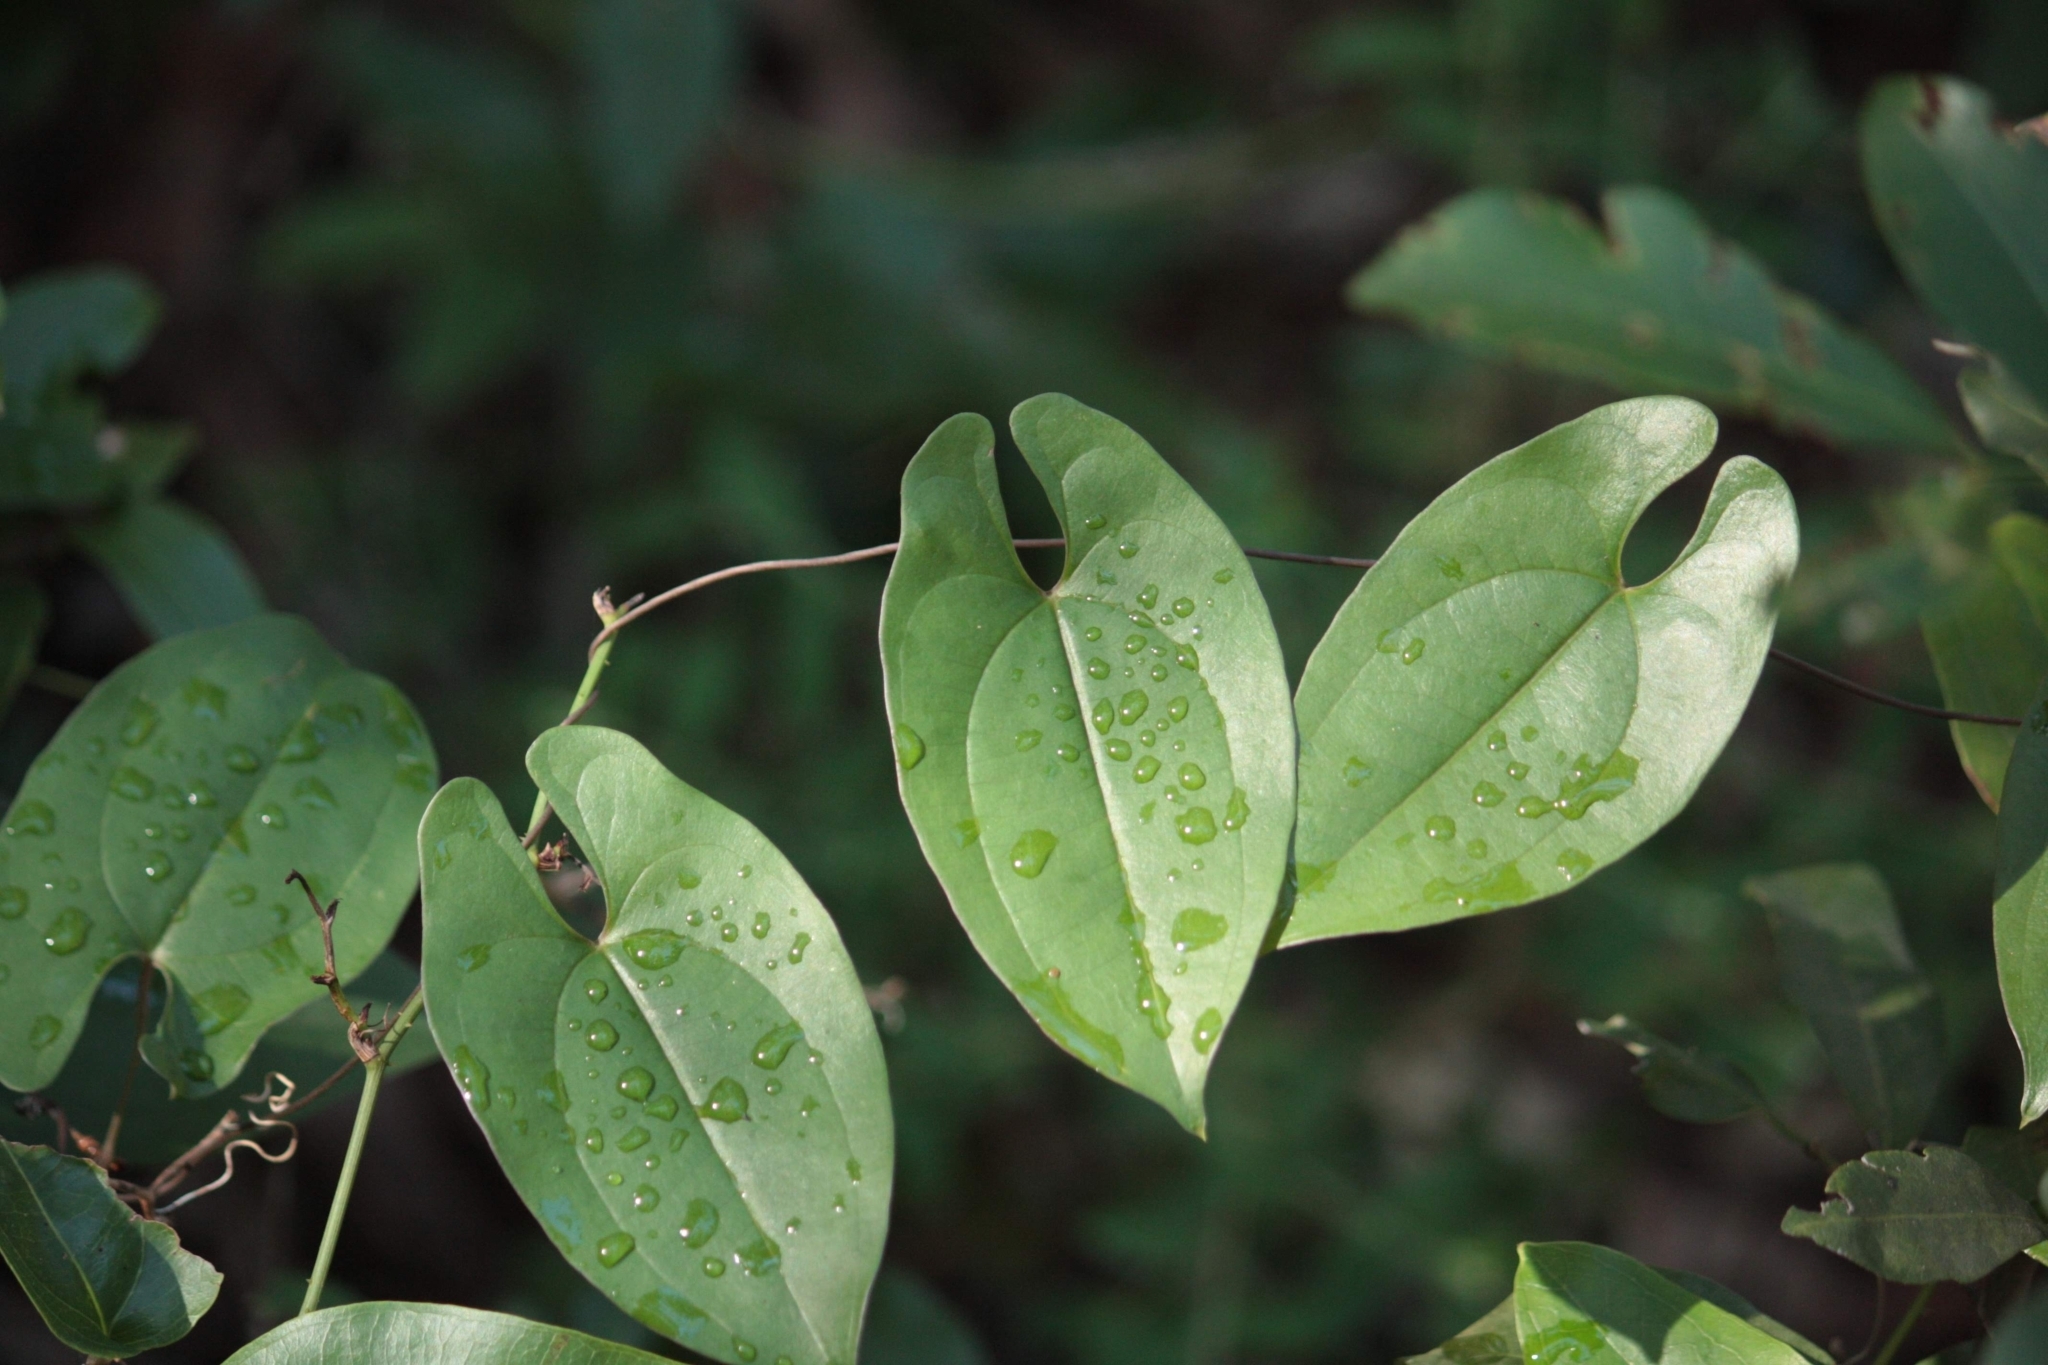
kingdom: Plantae
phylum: Tracheophyta
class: Liliopsida
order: Dioscoreales
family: Dioscoreaceae
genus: Dioscorea
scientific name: Dioscorea transversa
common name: Long yam
